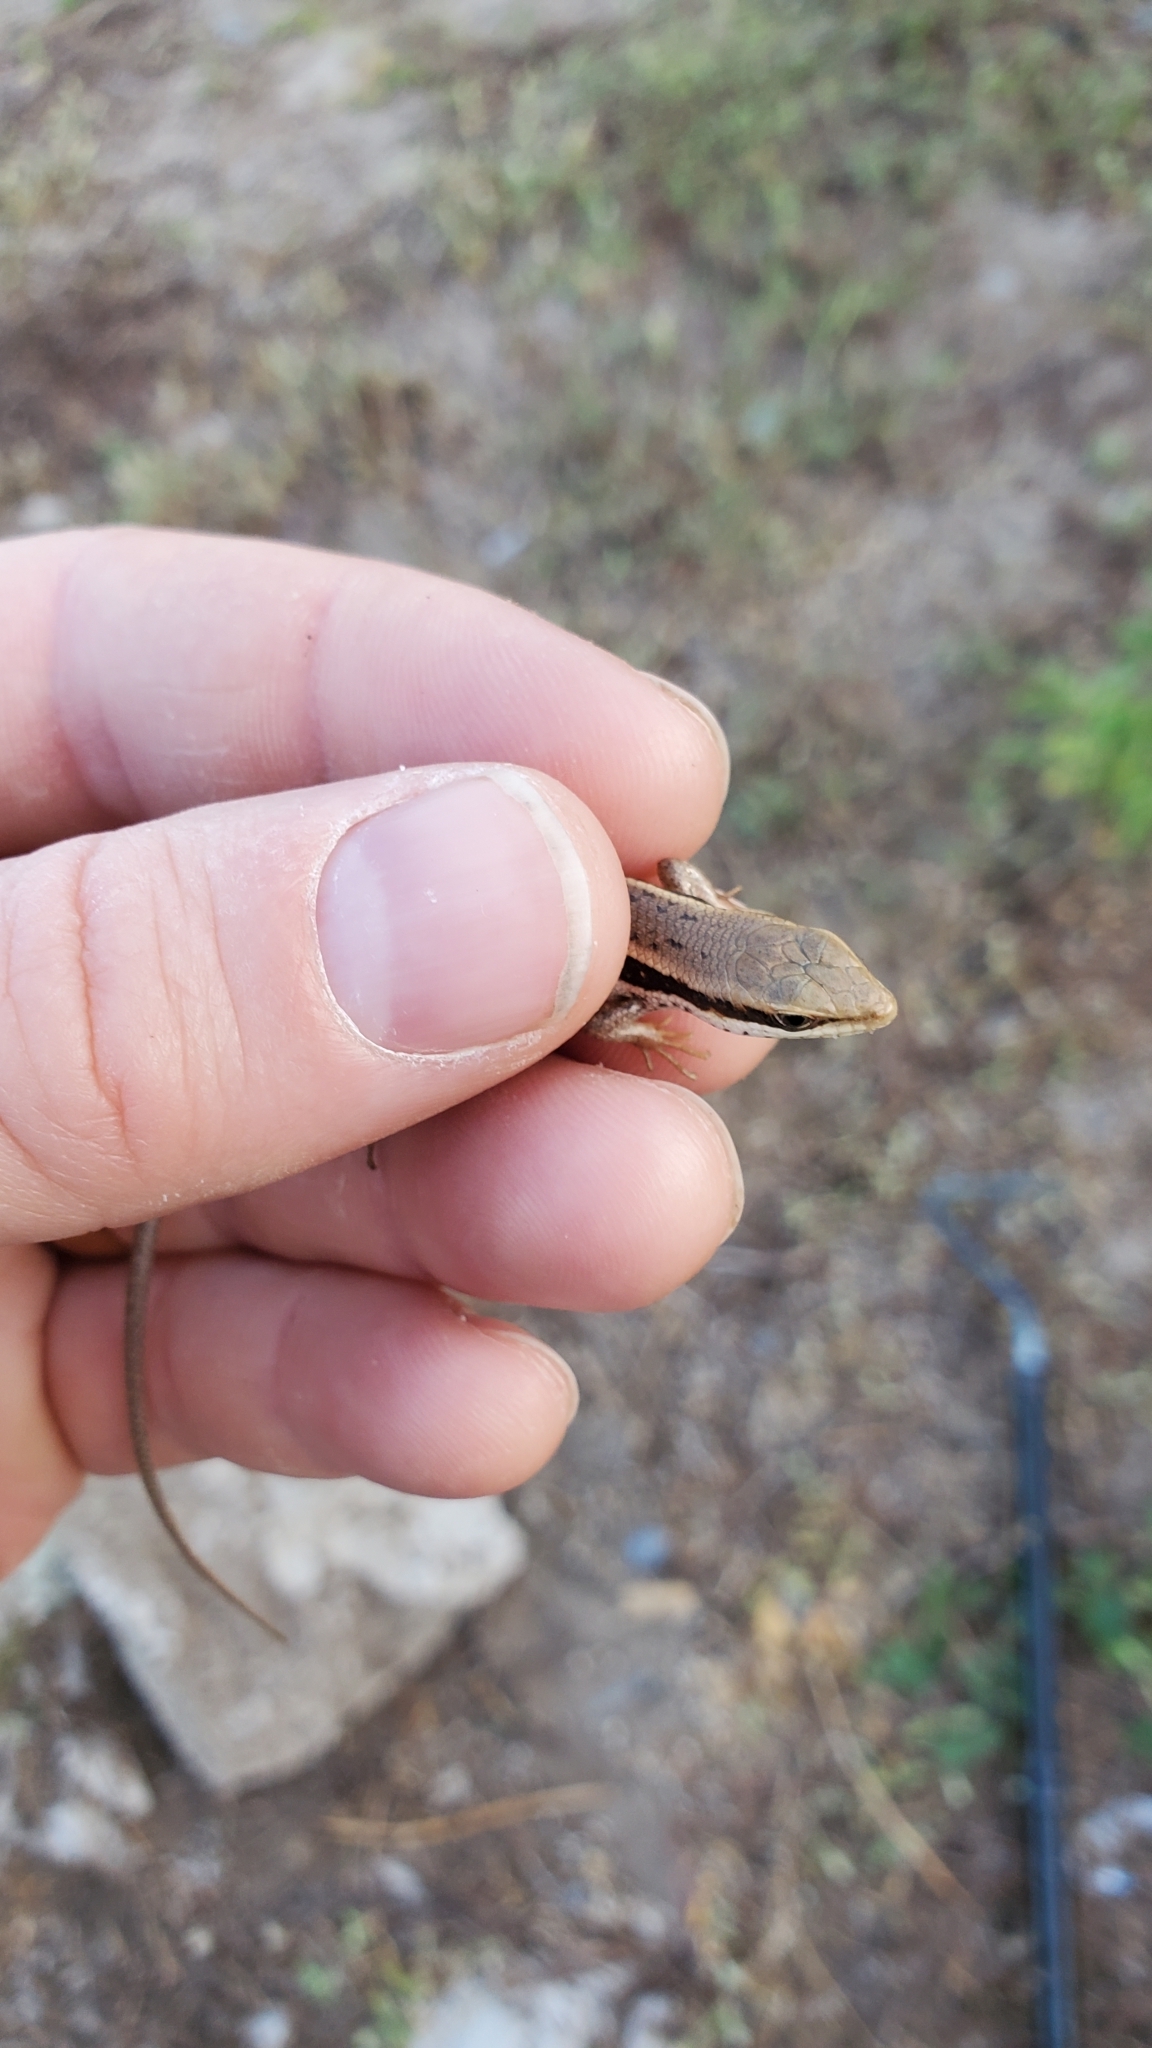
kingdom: Animalia
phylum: Chordata
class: Squamata
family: Scincidae
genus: Trachylepis
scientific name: Trachylepis planifrons
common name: Tree skink
